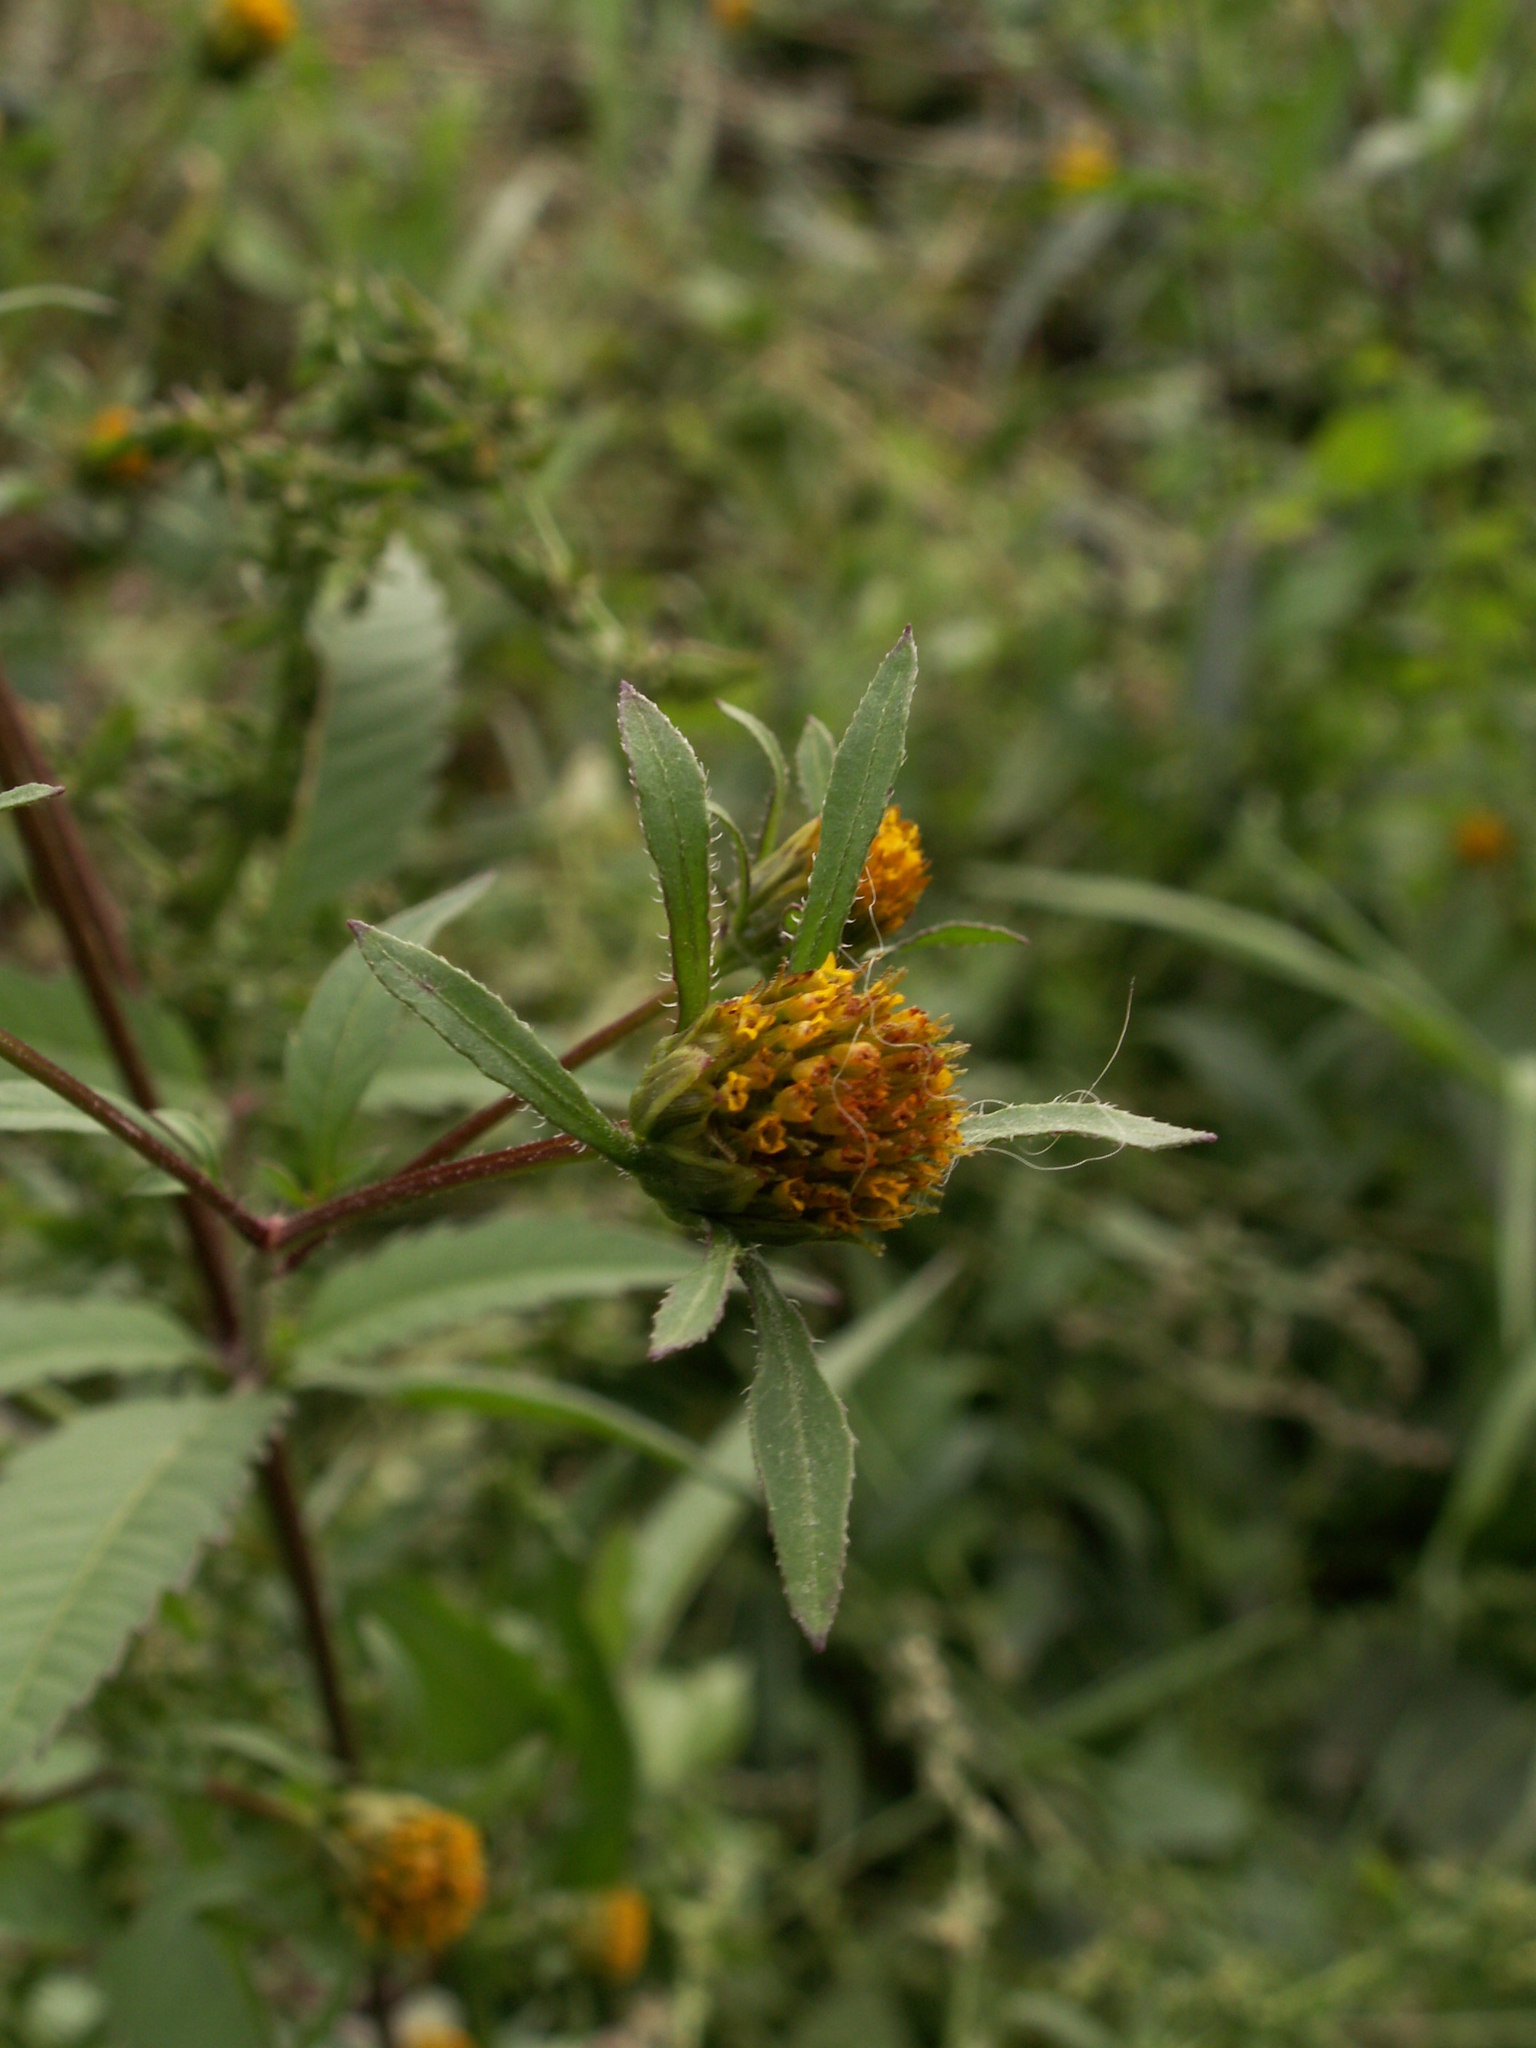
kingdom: Plantae
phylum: Tracheophyta
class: Magnoliopsida
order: Asterales
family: Asteraceae
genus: Bidens
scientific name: Bidens frondosa
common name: Beggarticks
